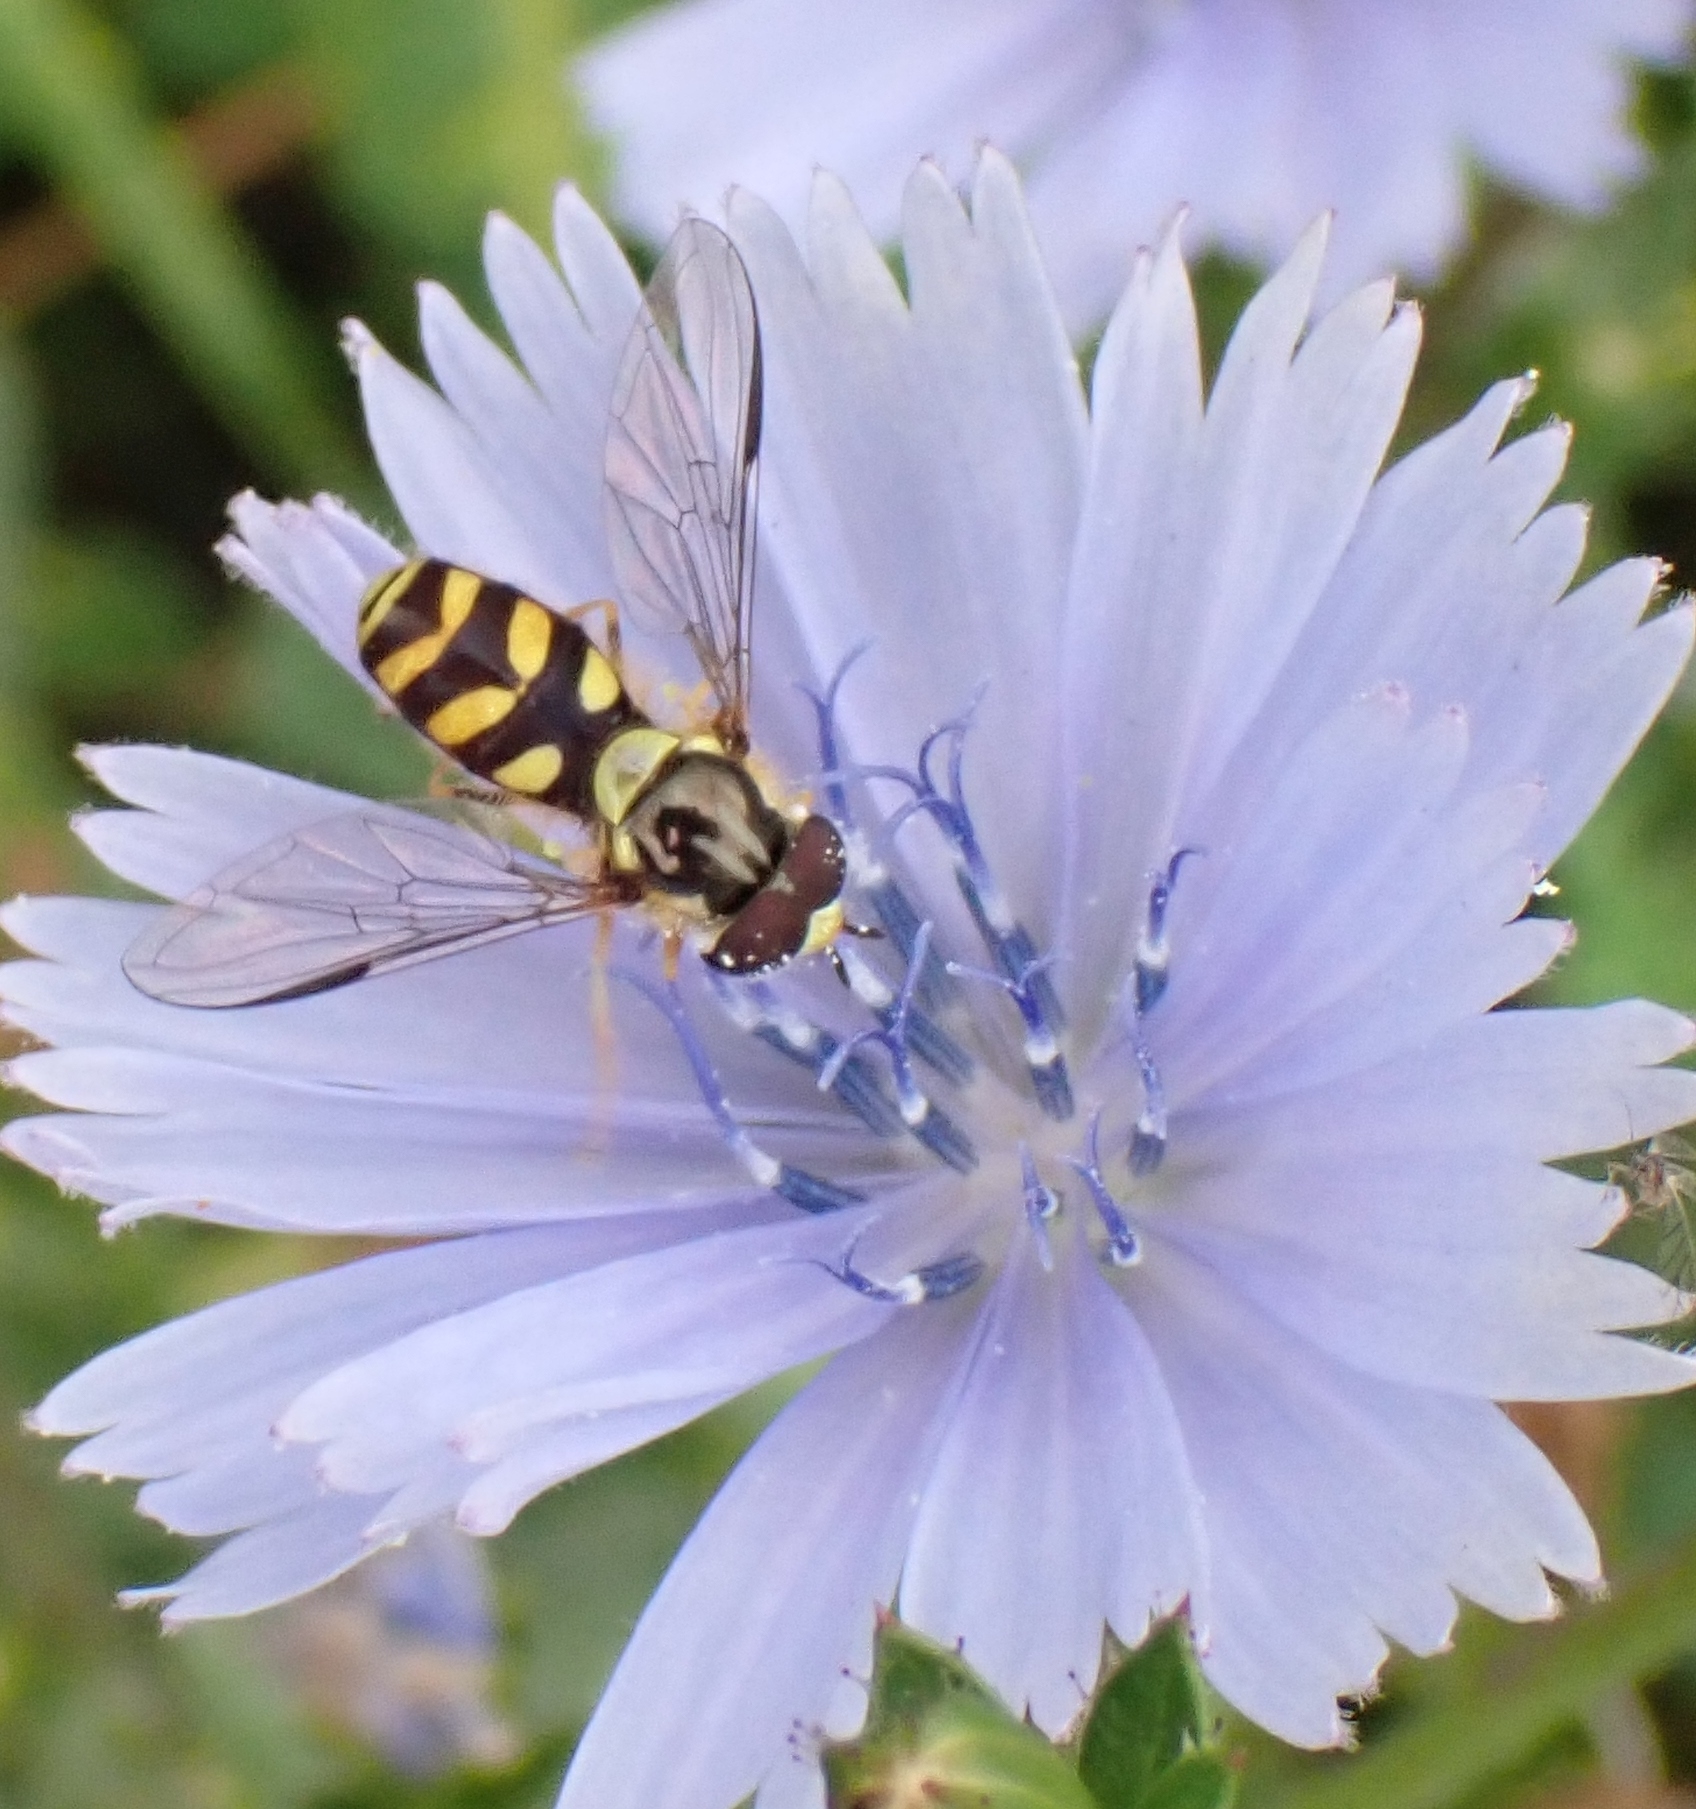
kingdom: Animalia
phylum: Arthropoda
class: Insecta
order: Diptera
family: Syrphidae
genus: Dasysyrphus
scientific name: Dasysyrphus albostriatus
